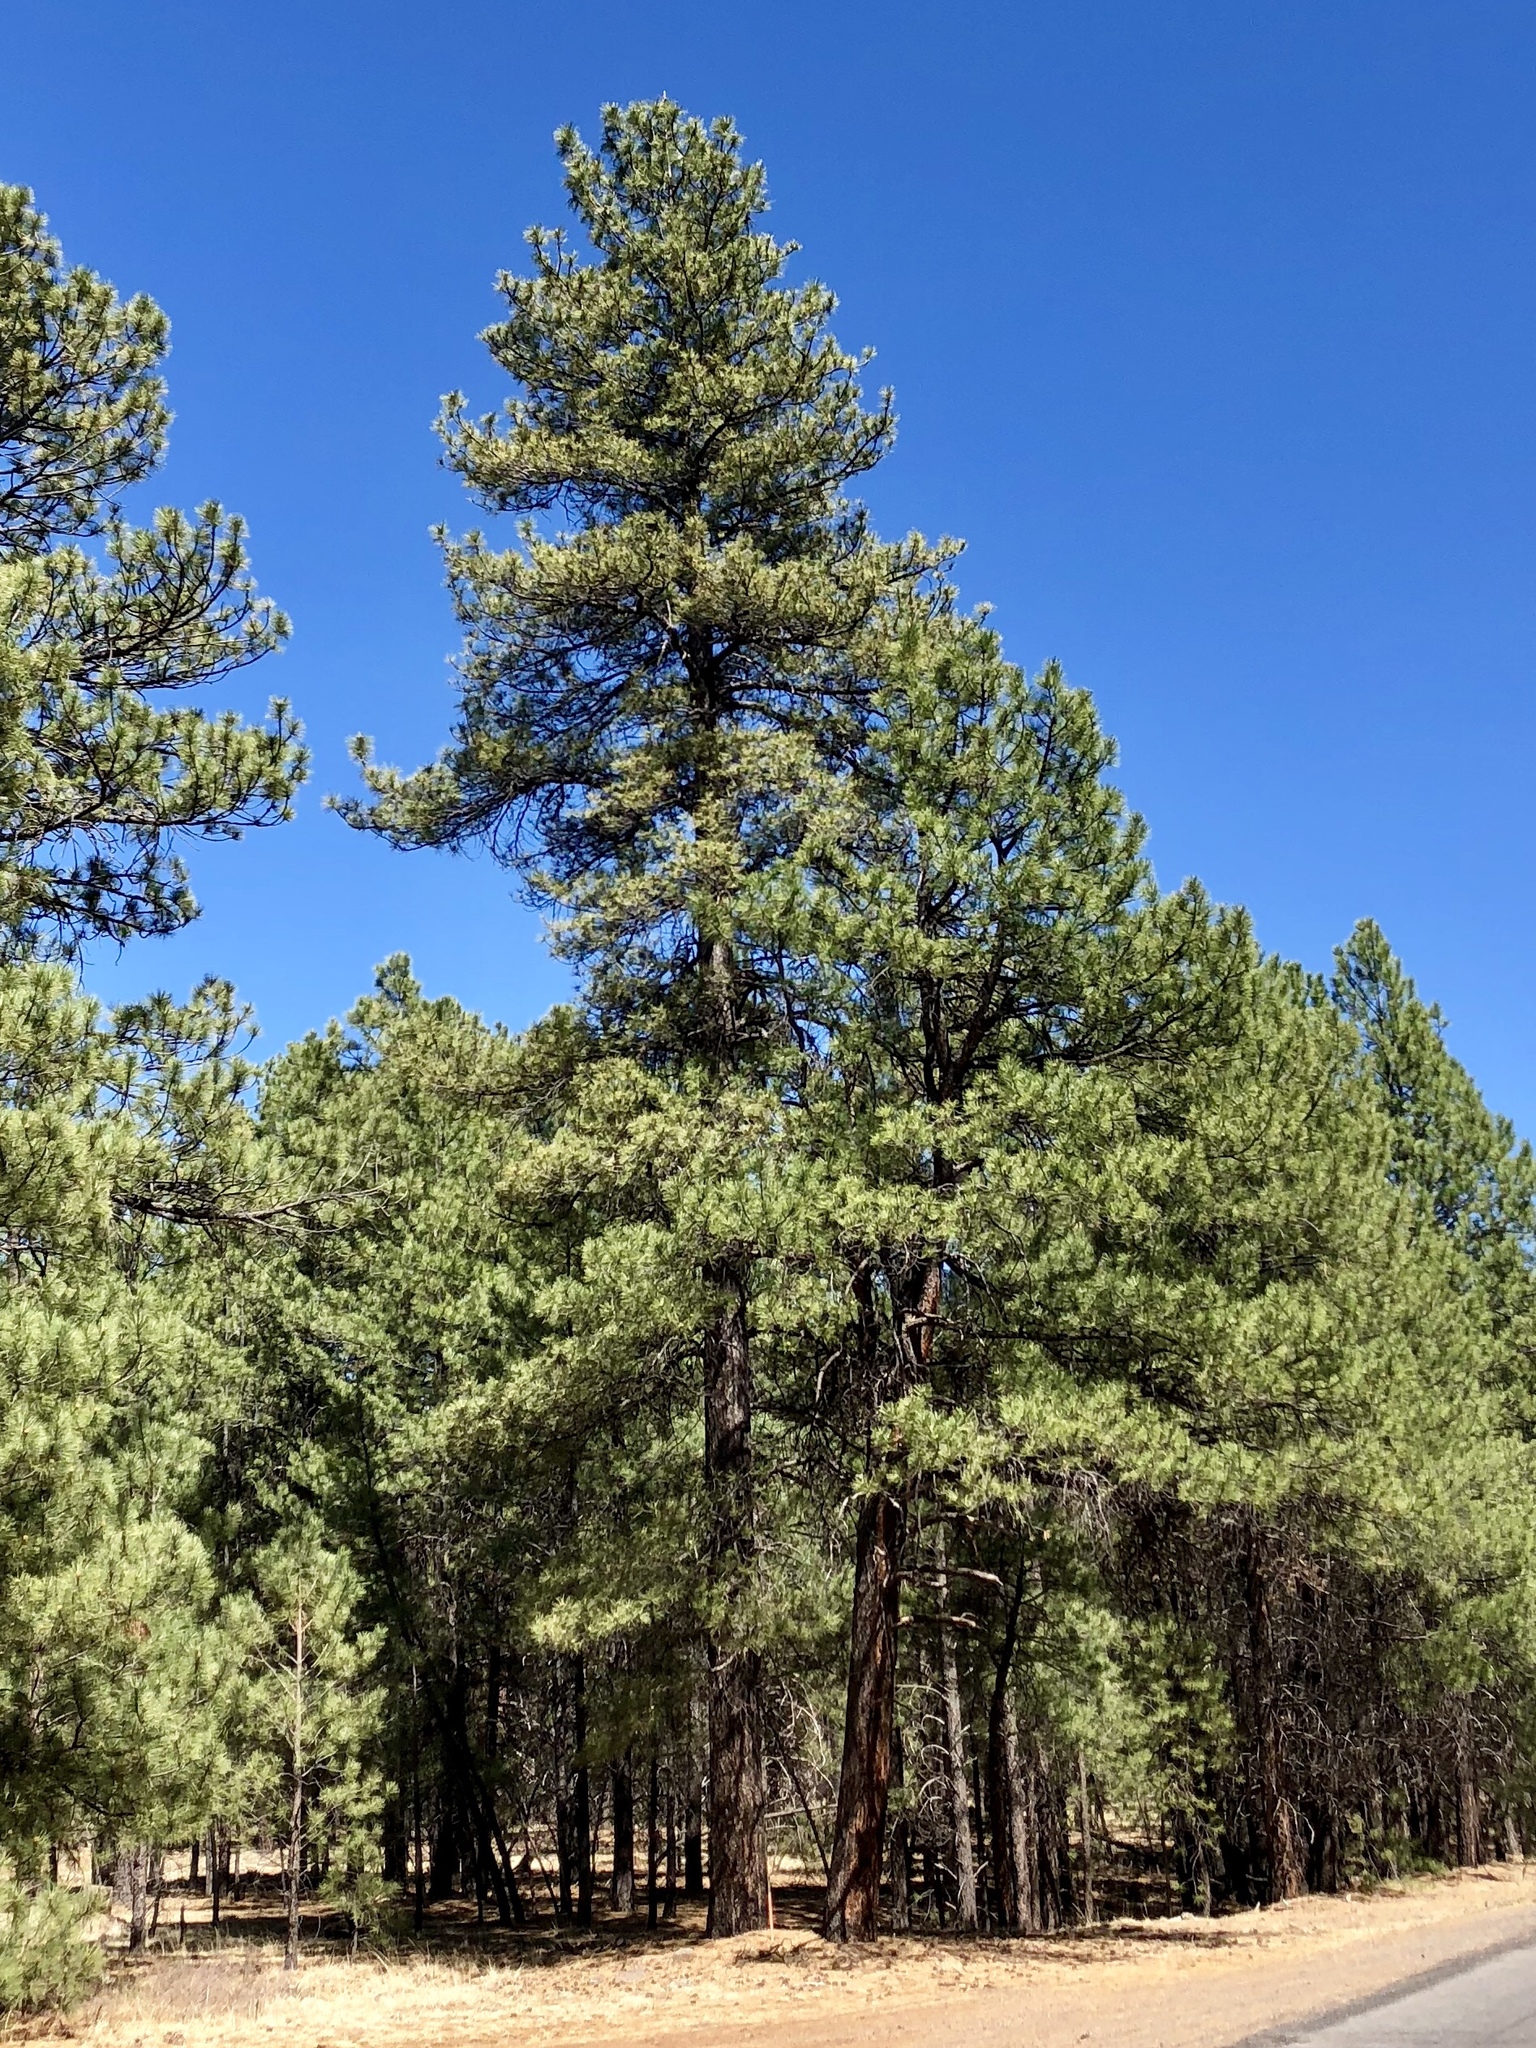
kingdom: Plantae
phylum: Tracheophyta
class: Pinopsida
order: Pinales
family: Pinaceae
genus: Pinus
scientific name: Pinus ponderosa
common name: Western yellow-pine
